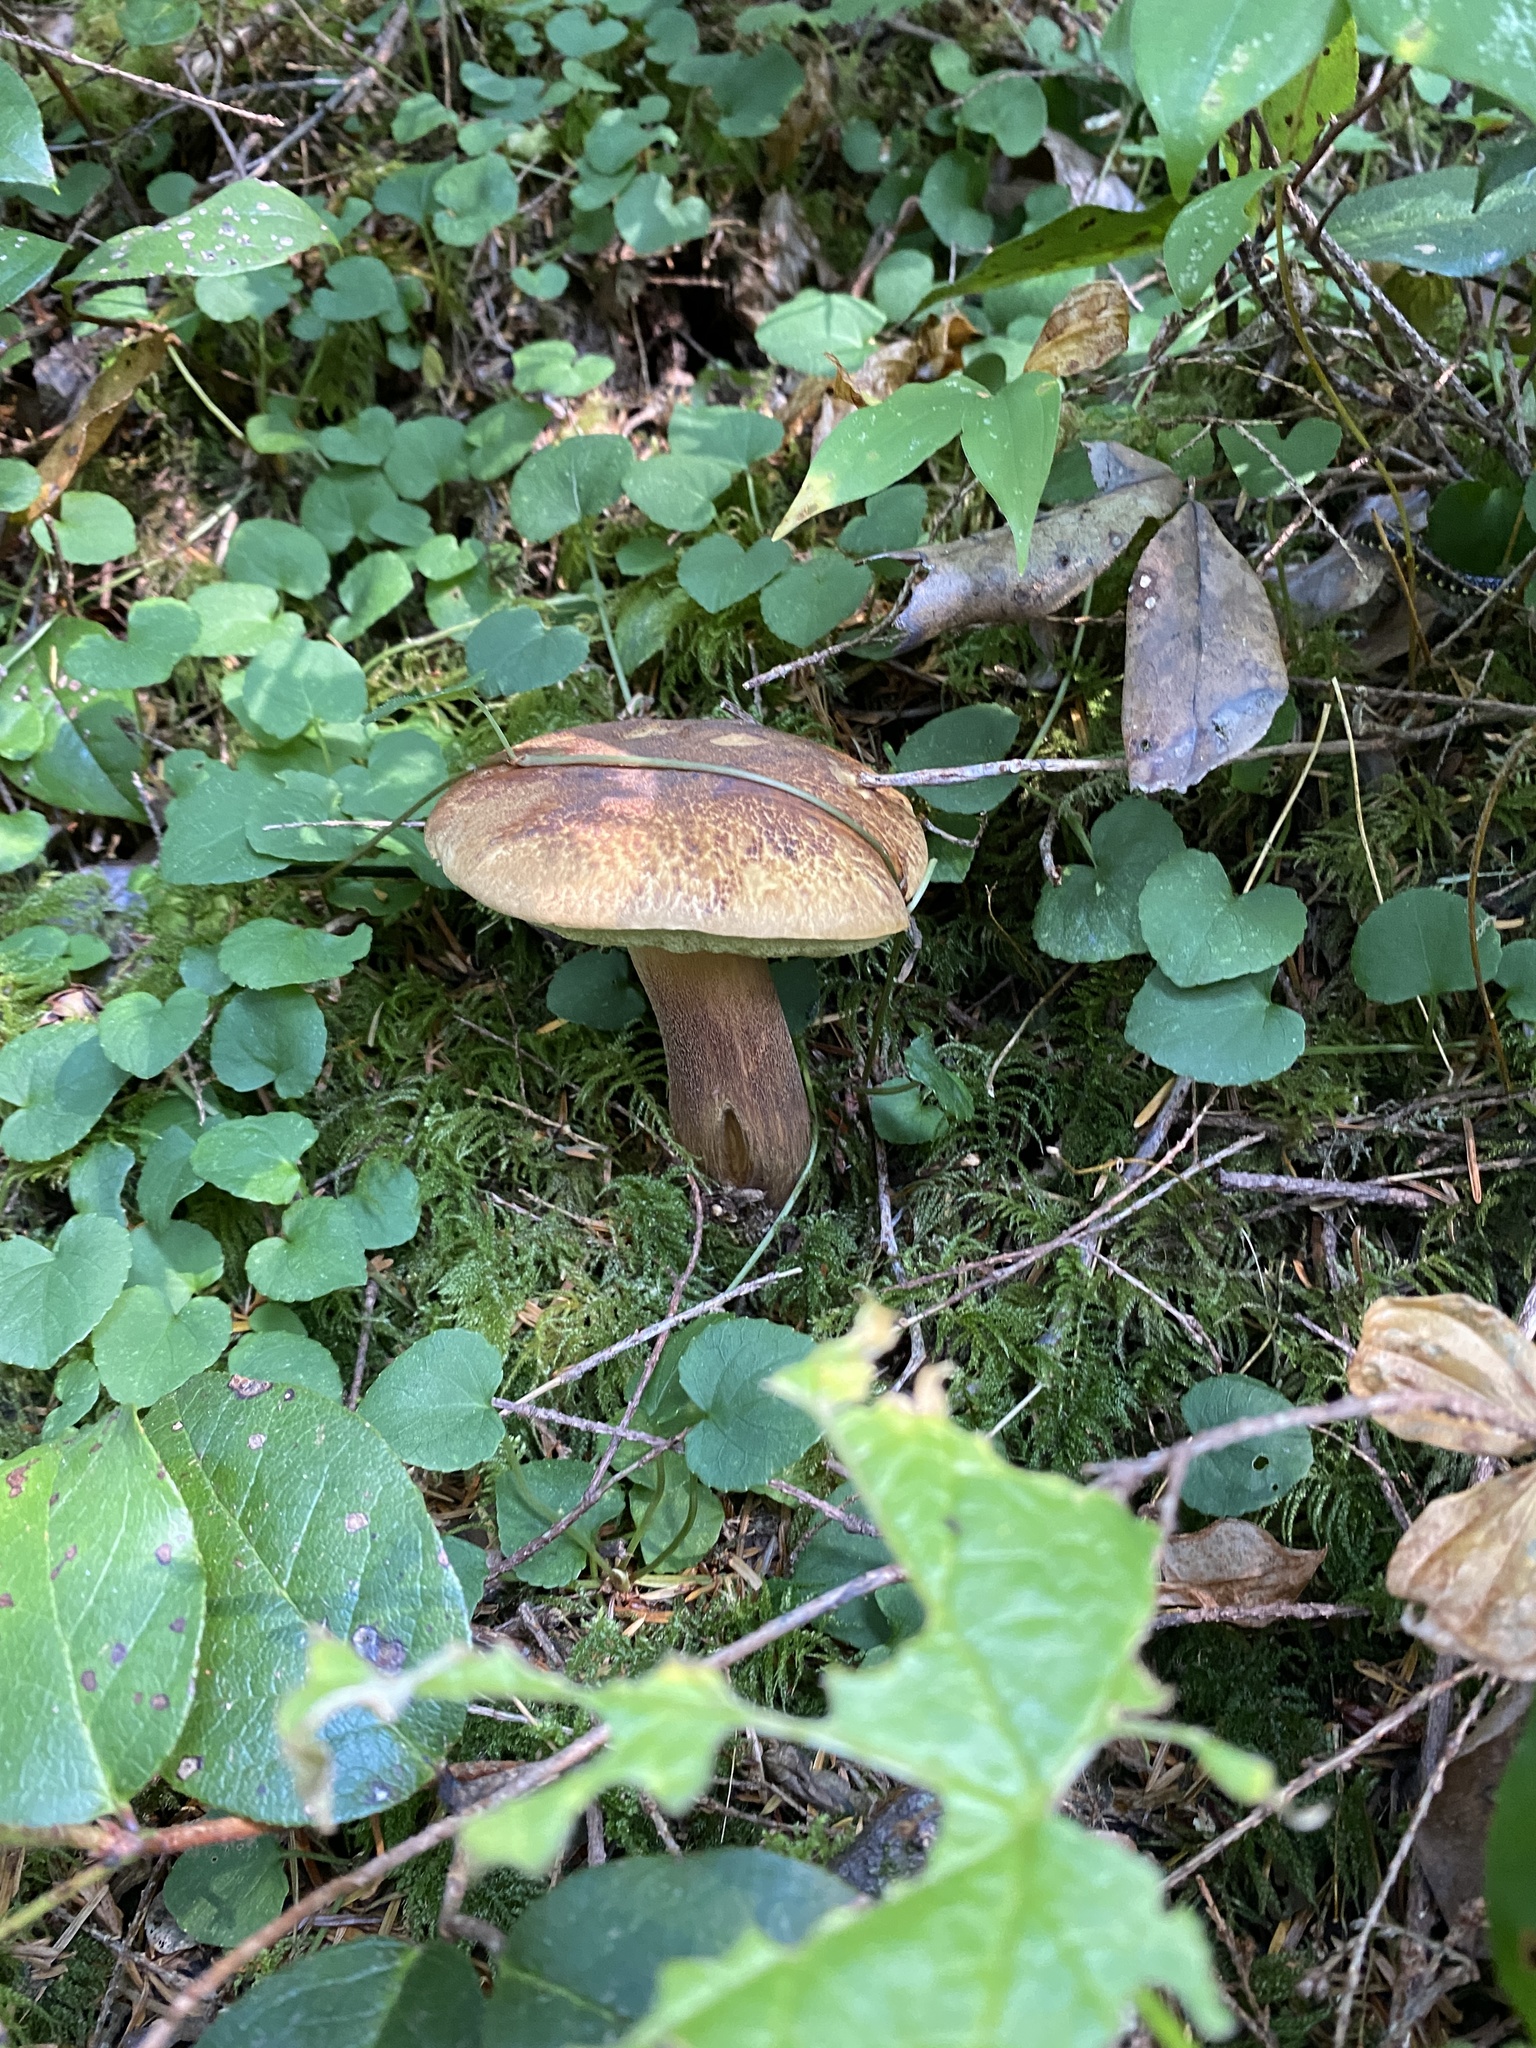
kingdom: Fungi
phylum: Basidiomycota
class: Agaricomycetes
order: Boletales
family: Boletaceae
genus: Boletus
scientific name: Boletus fibrillosus
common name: Fib king
